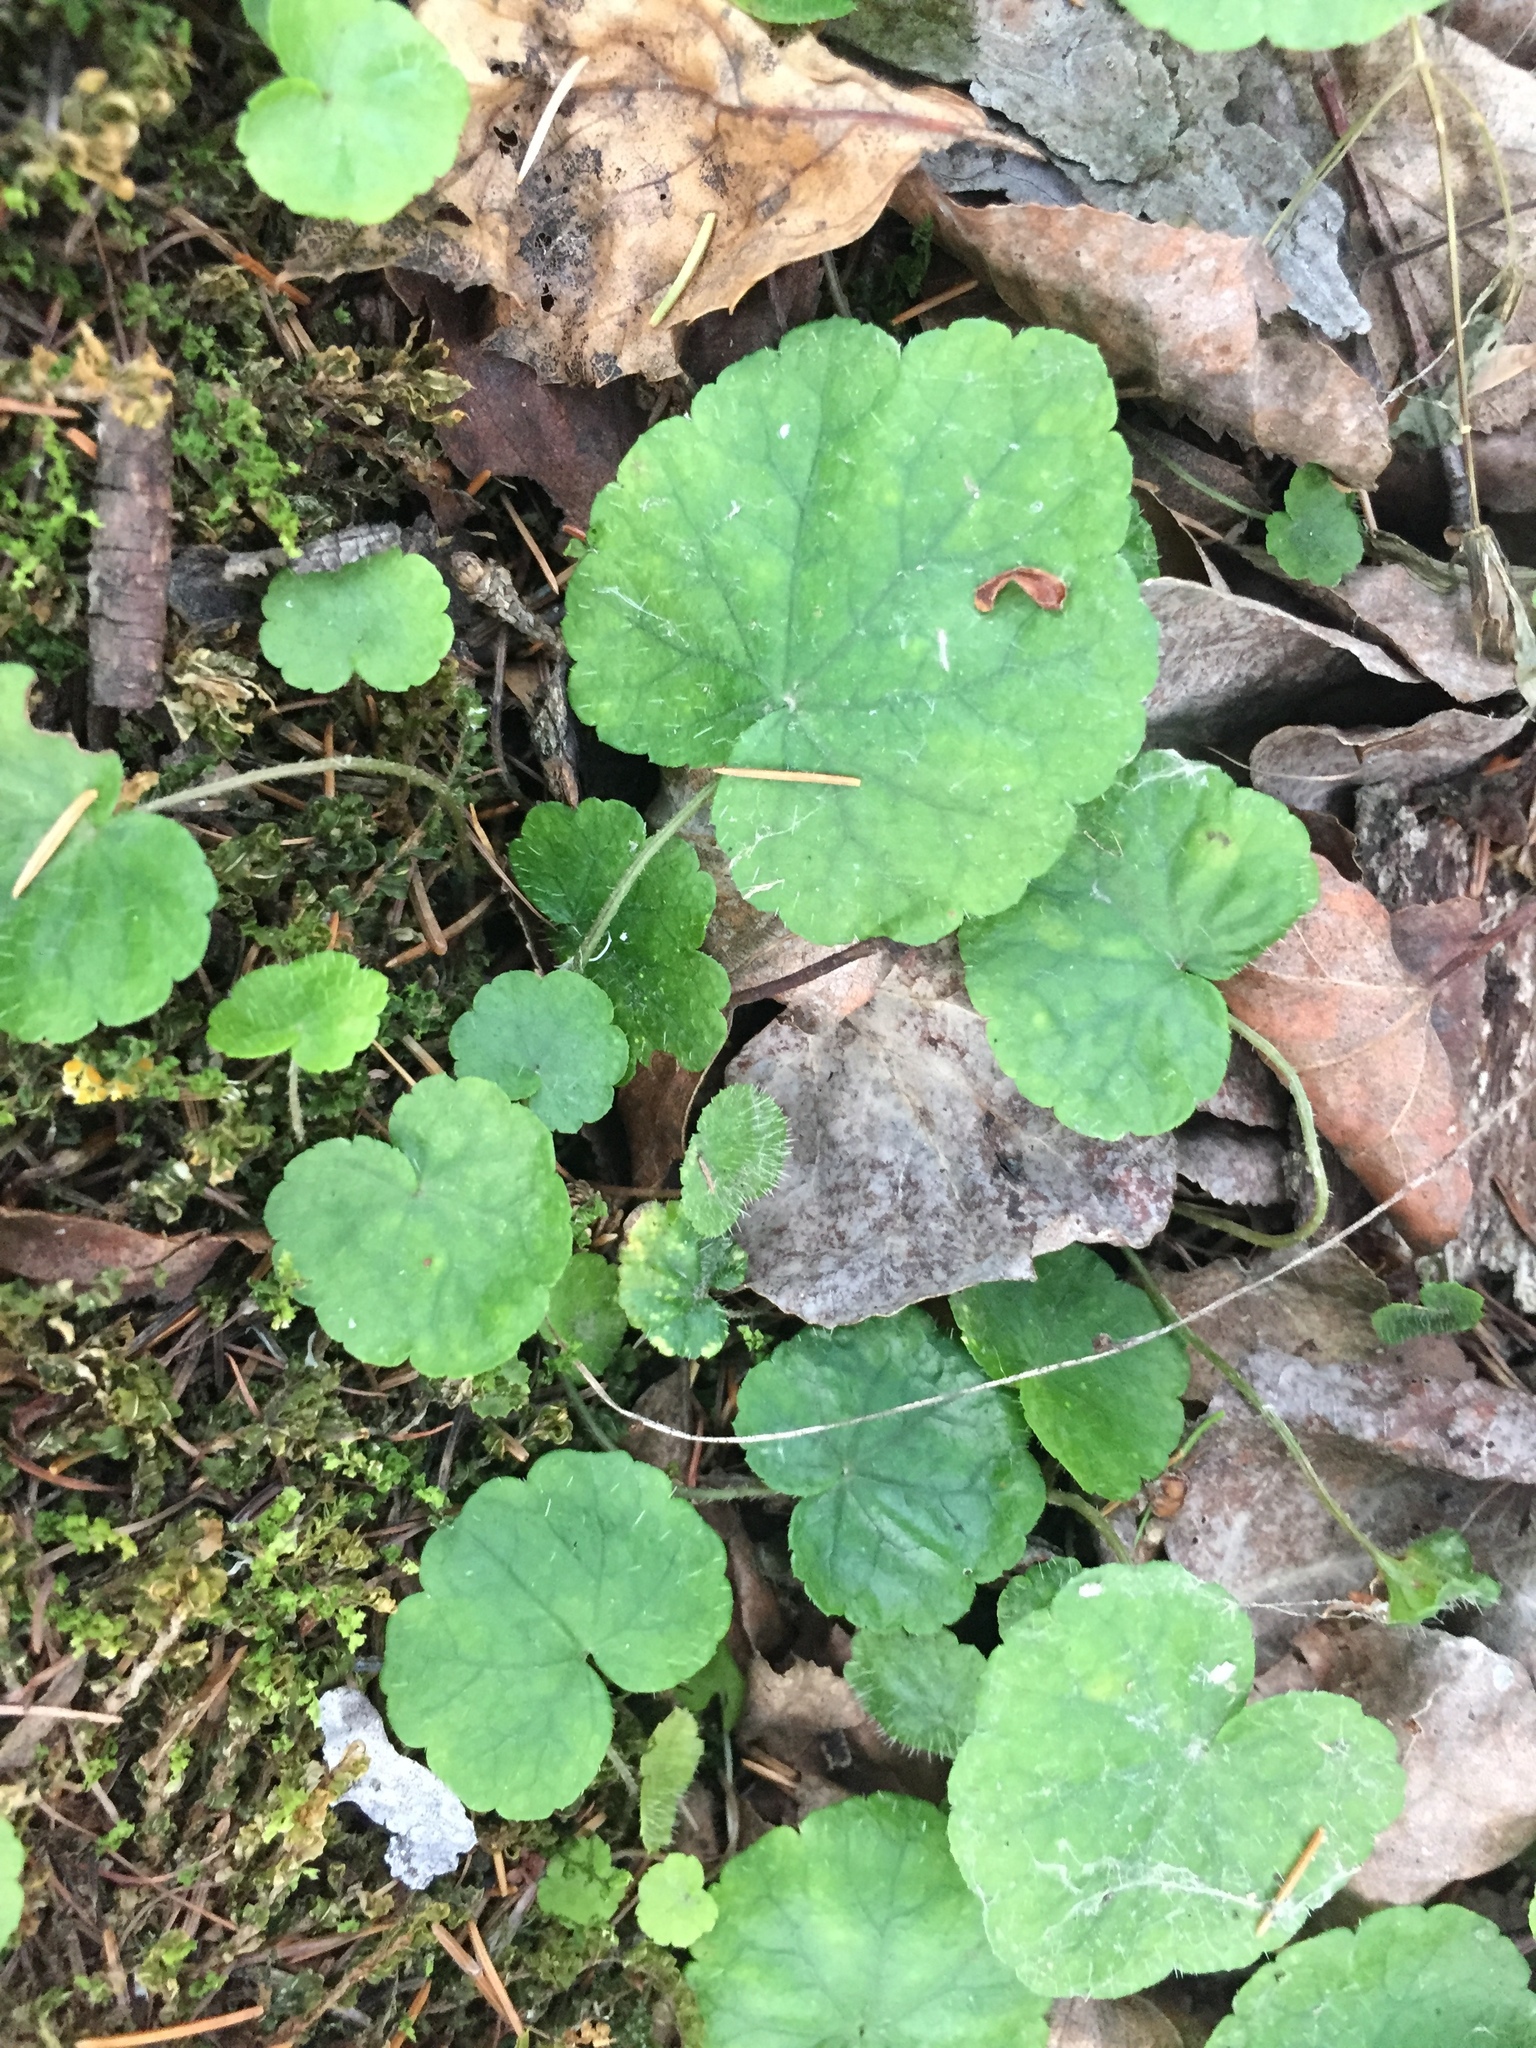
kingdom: Plantae
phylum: Tracheophyta
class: Magnoliopsida
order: Saxifragales
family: Saxifragaceae
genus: Mitella
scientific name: Mitella nuda
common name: Bare-stemmed bishop's-cap
